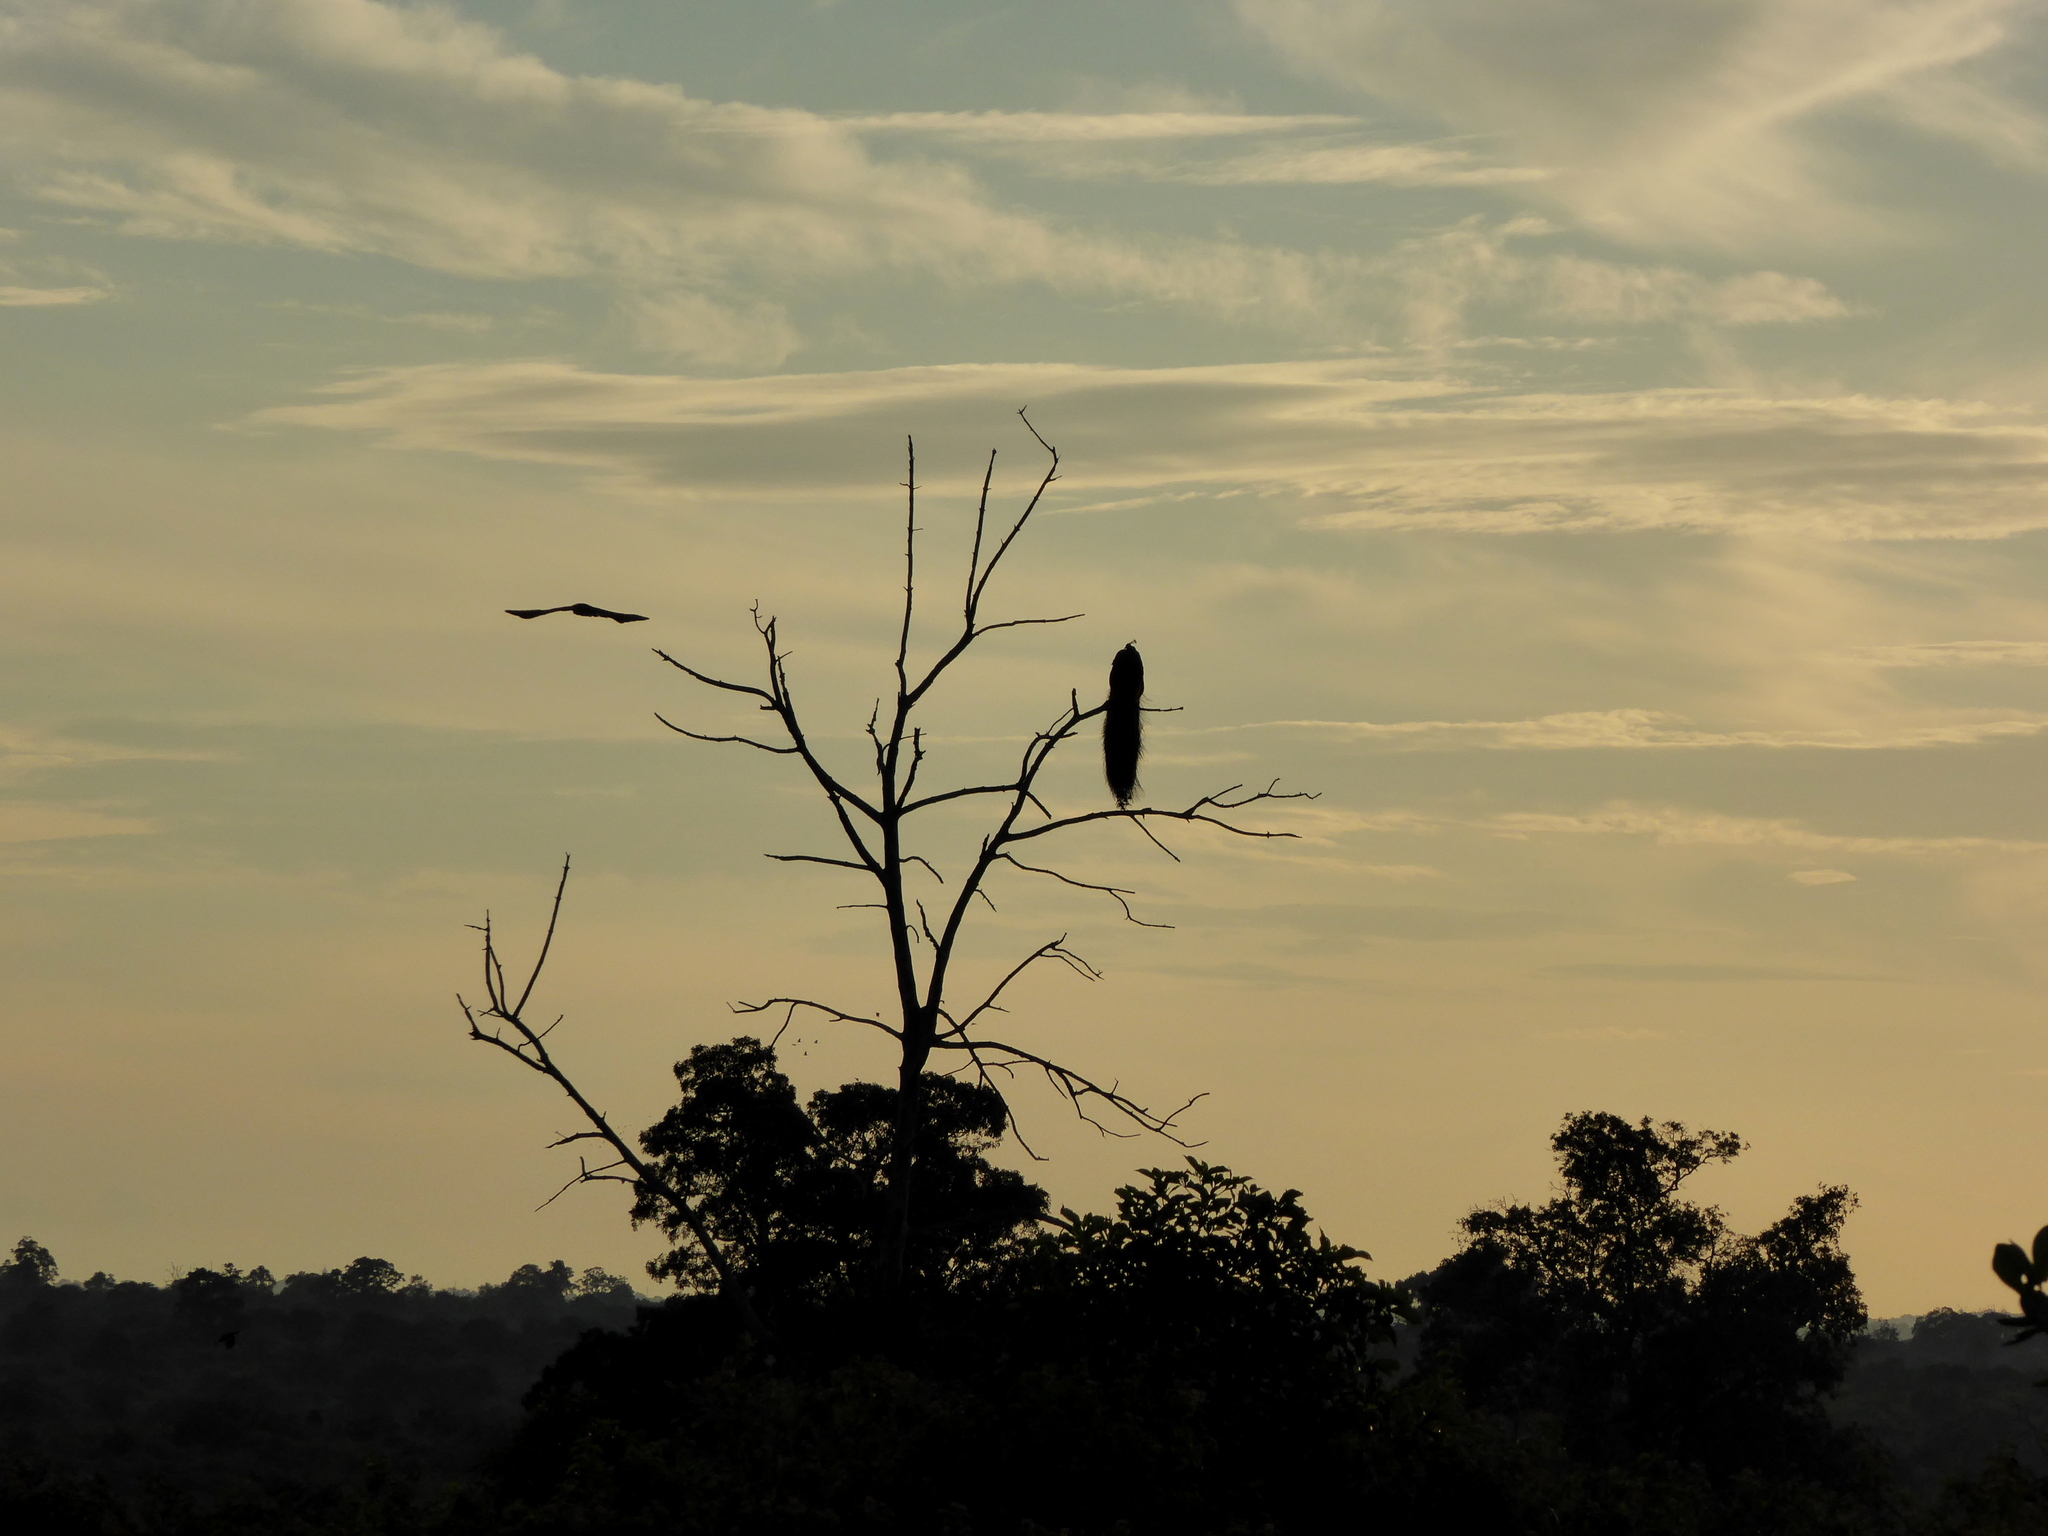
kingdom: Animalia
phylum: Chordata
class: Aves
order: Galliformes
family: Phasianidae
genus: Pavo
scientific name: Pavo cristatus
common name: Indian peafowl
